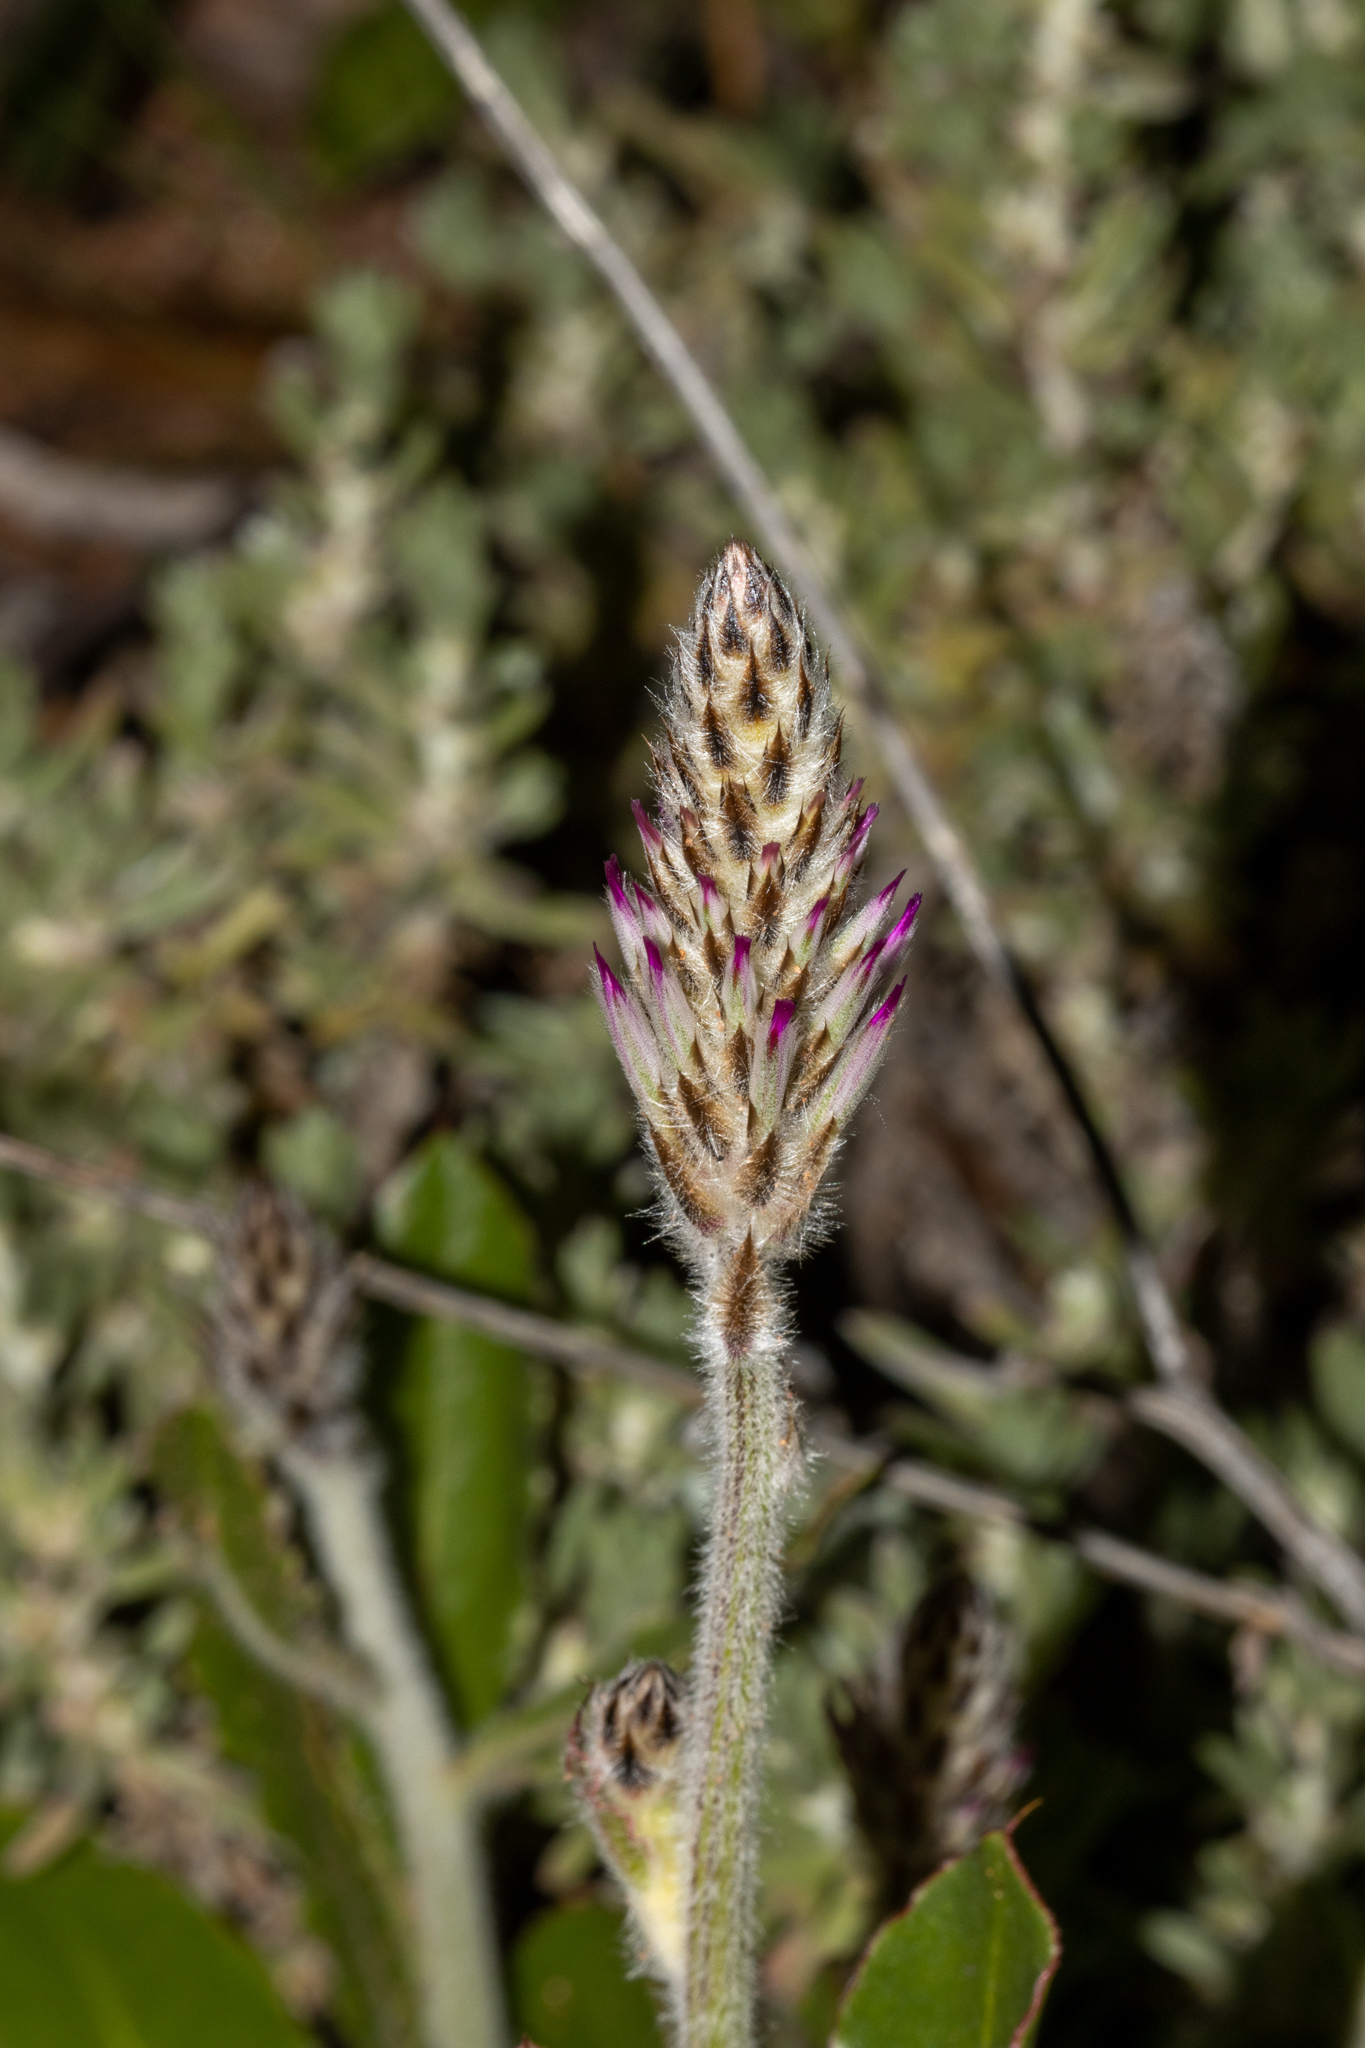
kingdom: Plantae
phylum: Tracheophyta
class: Magnoliopsida
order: Caryophyllales
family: Amaranthaceae
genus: Ptilotus
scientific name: Ptilotus exaltatus
